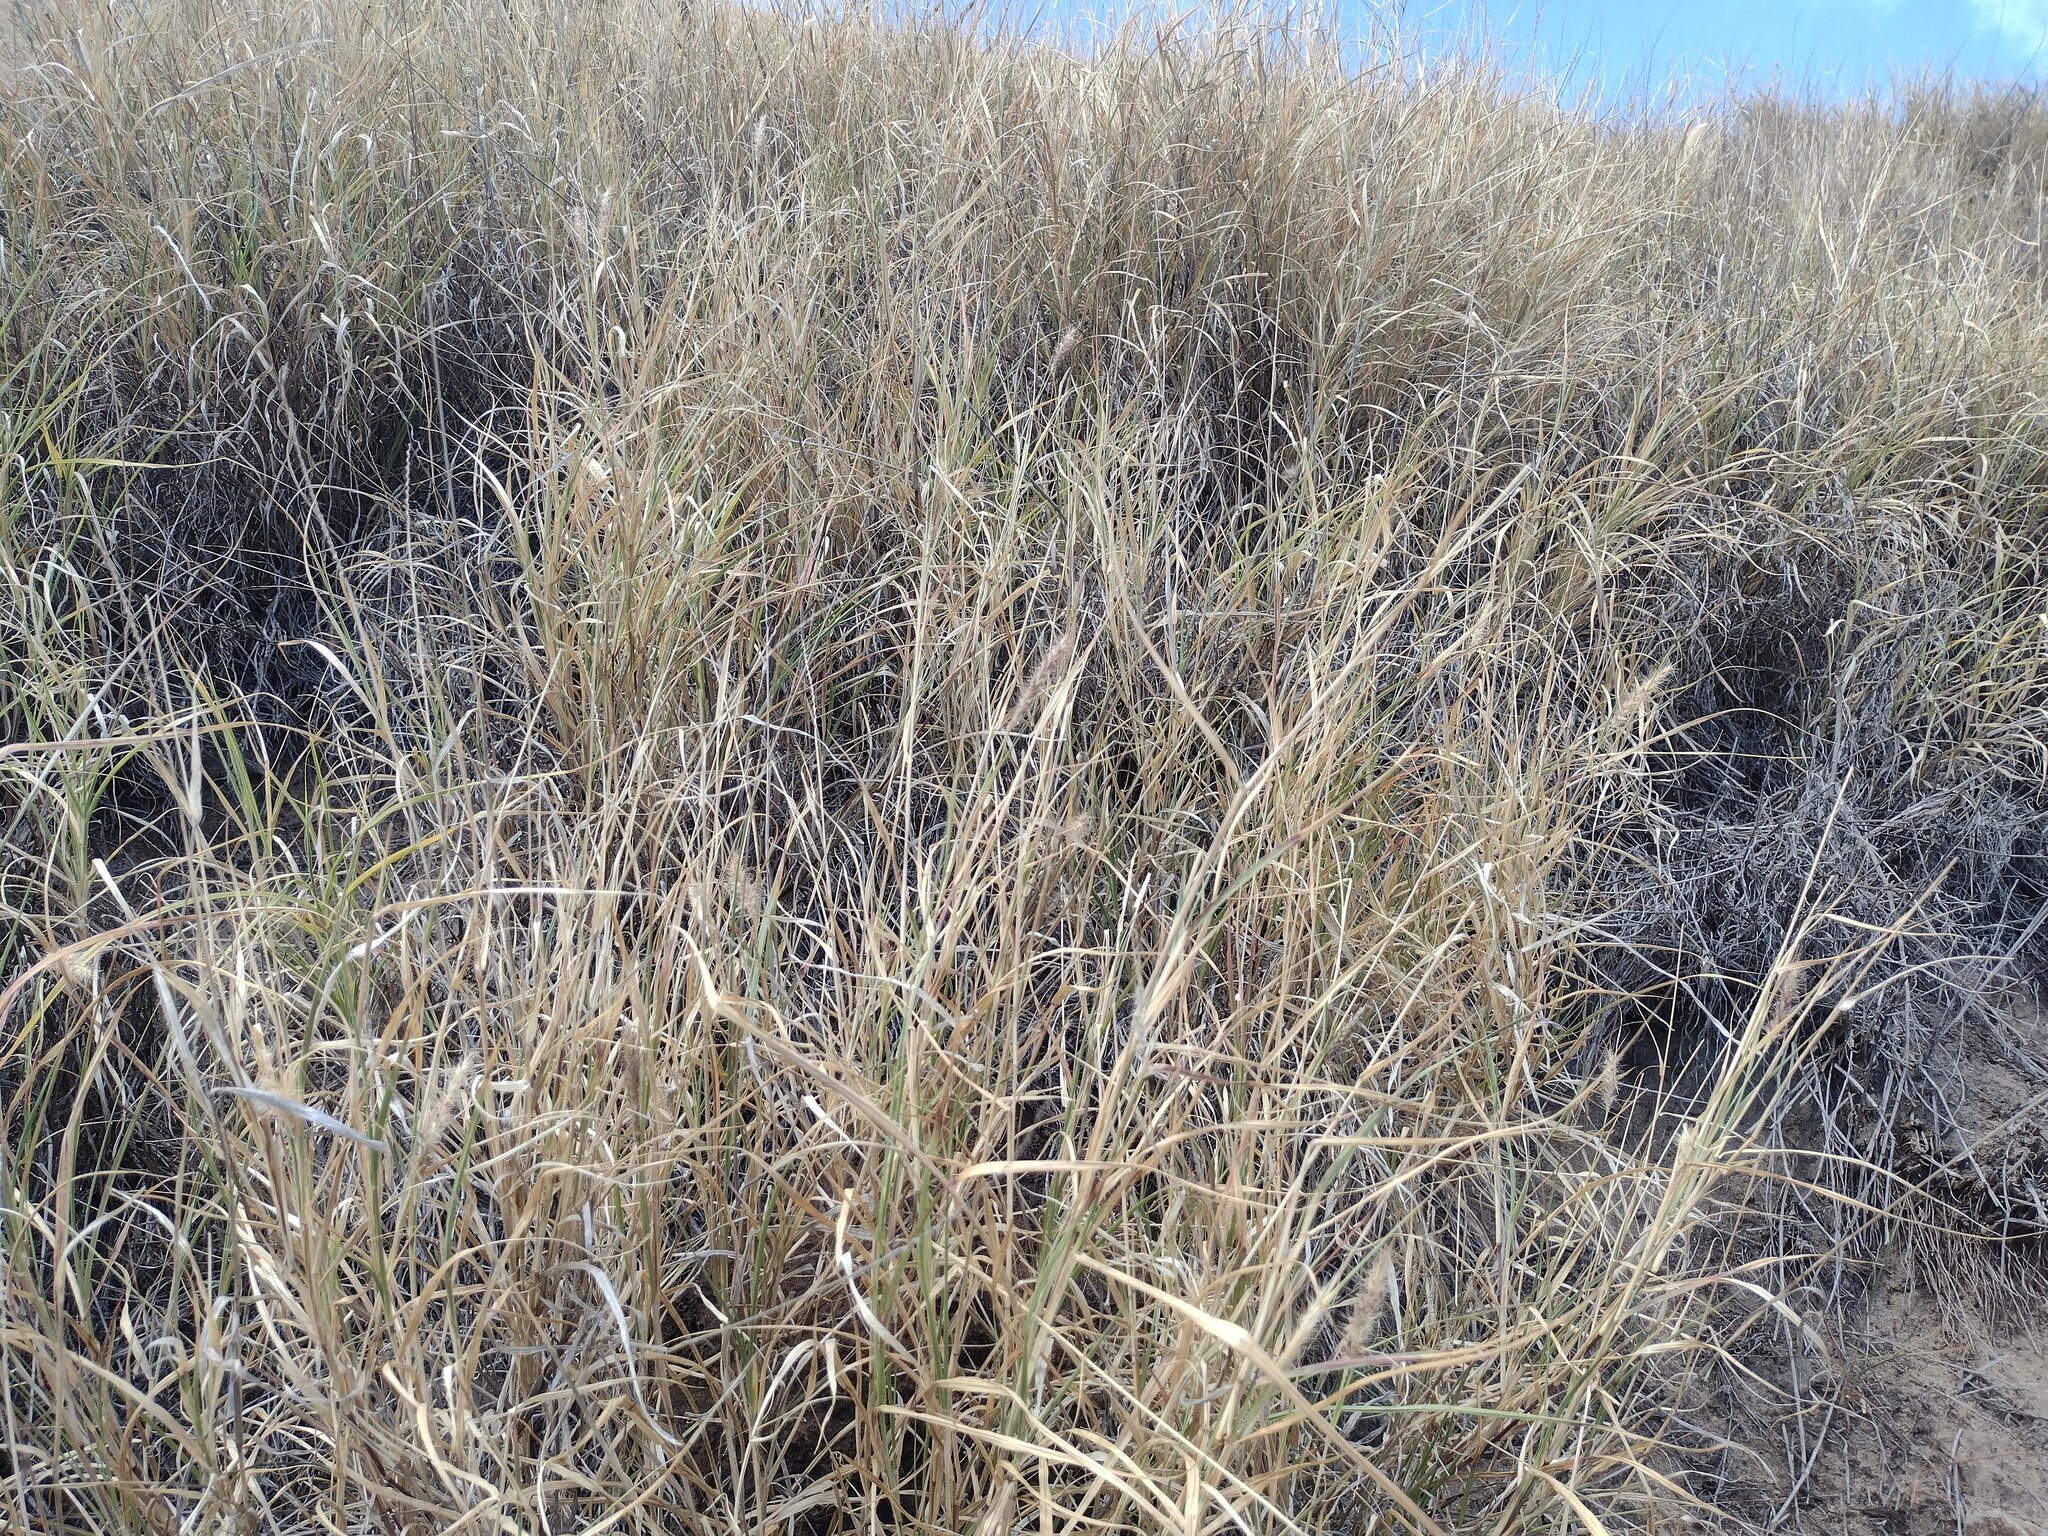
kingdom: Plantae
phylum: Tracheophyta
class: Liliopsida
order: Poales
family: Poaceae
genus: Cenchrus
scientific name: Cenchrus ciliaris
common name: Buffelgrass
